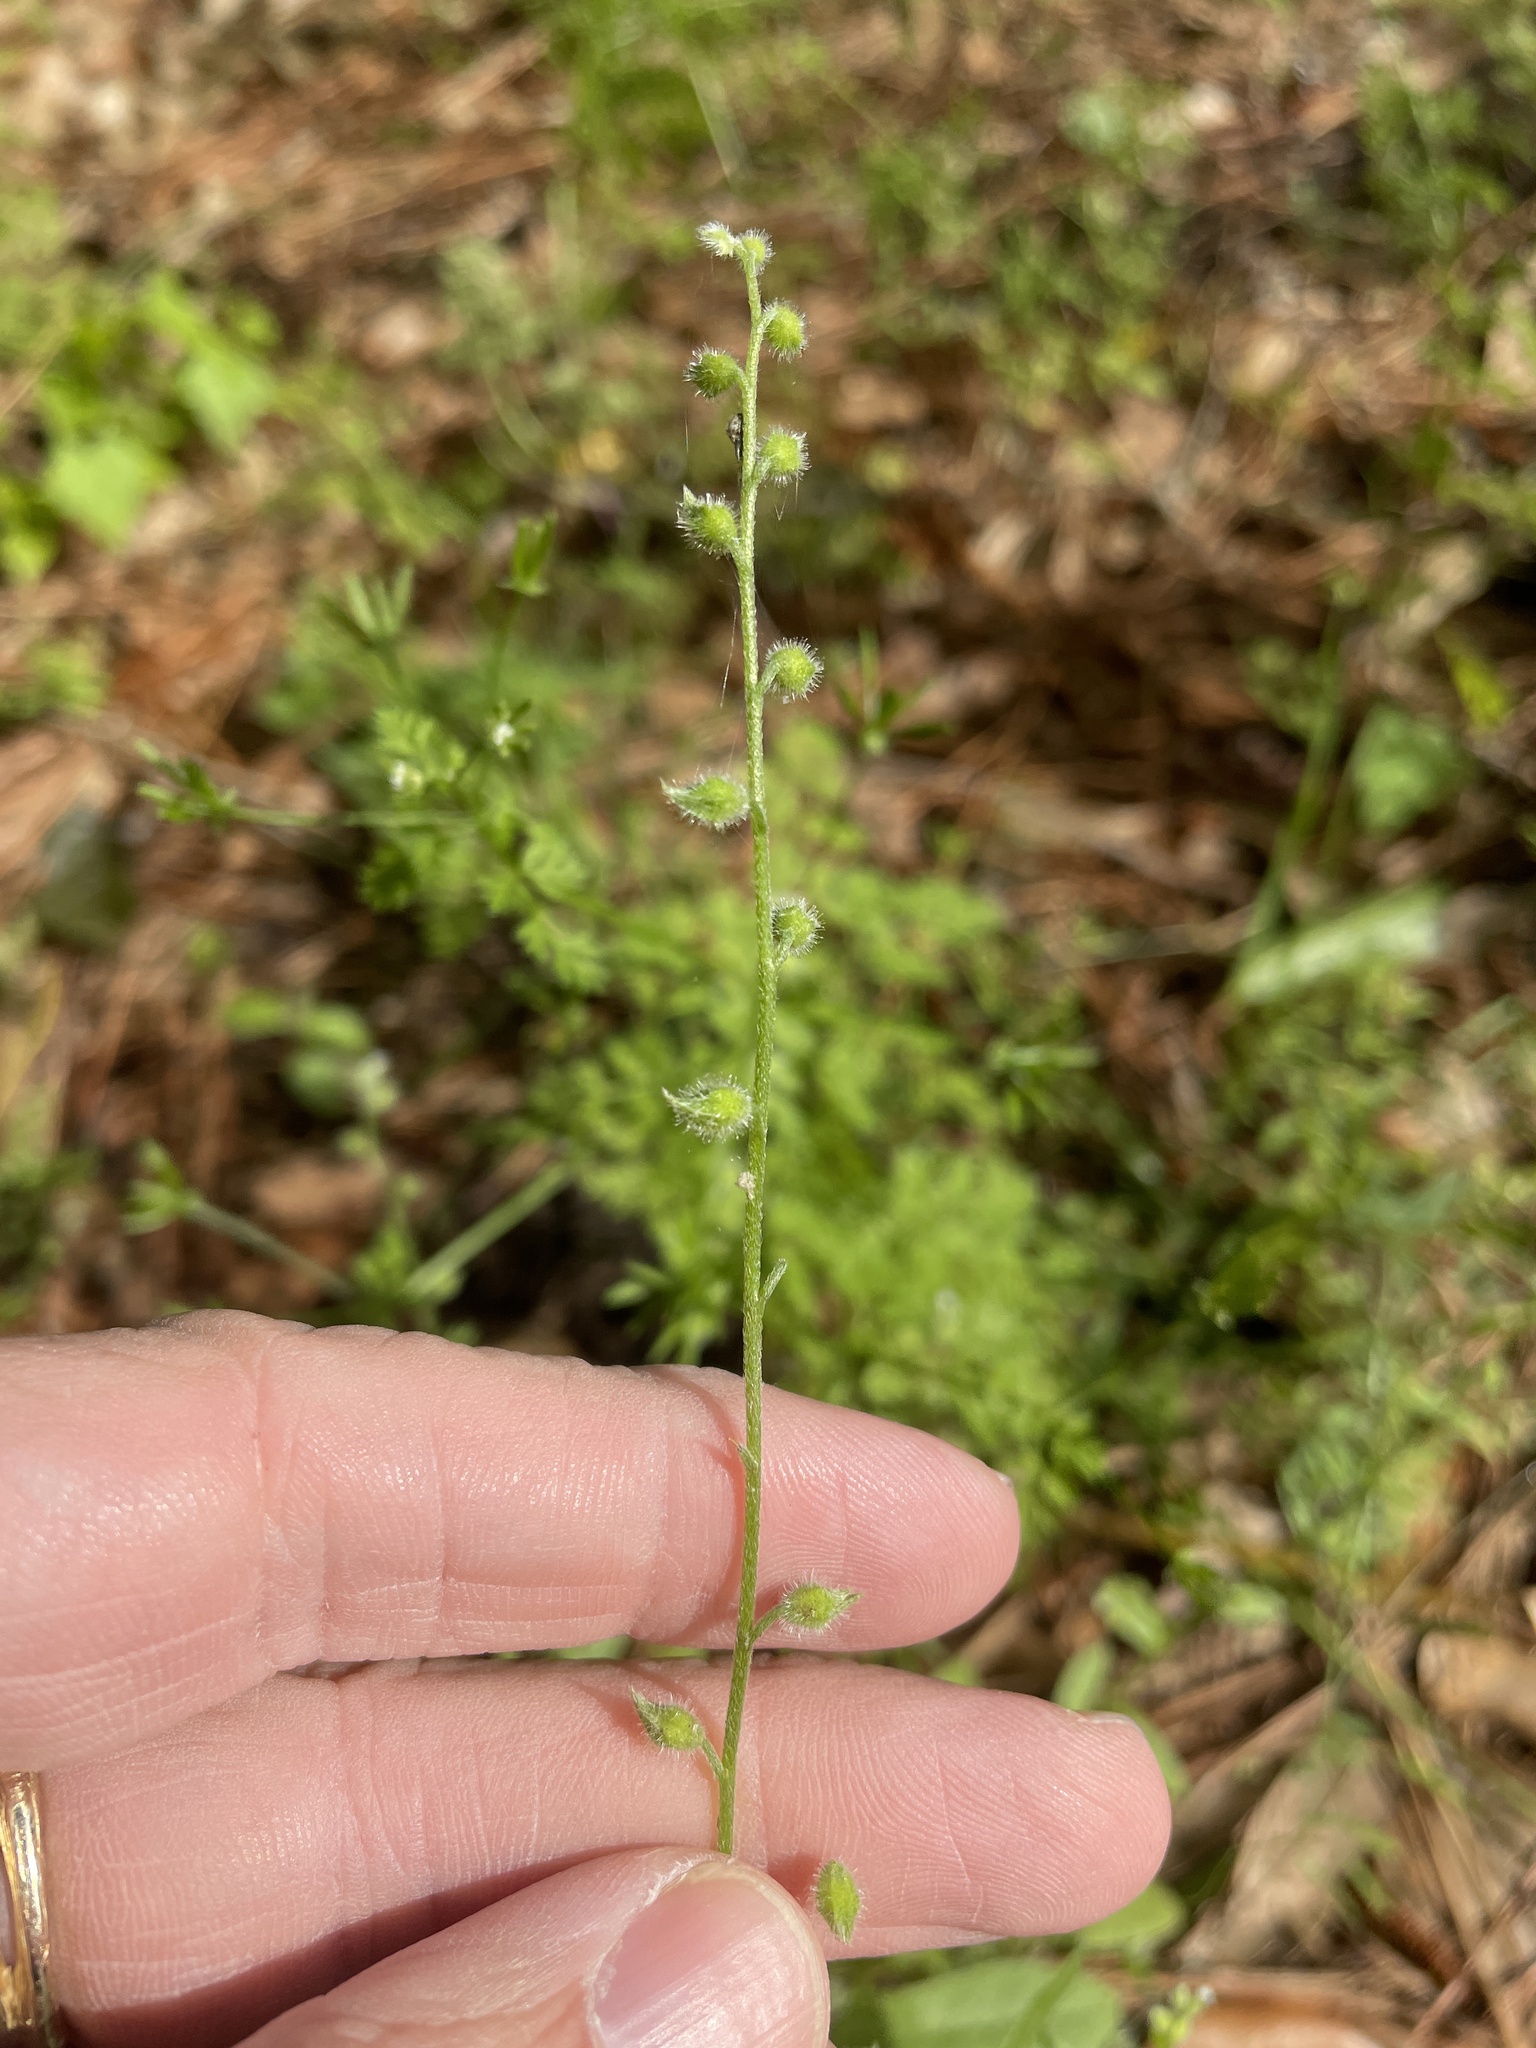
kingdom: Plantae
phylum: Tracheophyta
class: Magnoliopsida
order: Boraginales
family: Boraginaceae
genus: Myosotis
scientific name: Myosotis macrosperma
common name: Large-seed forget-me-not
